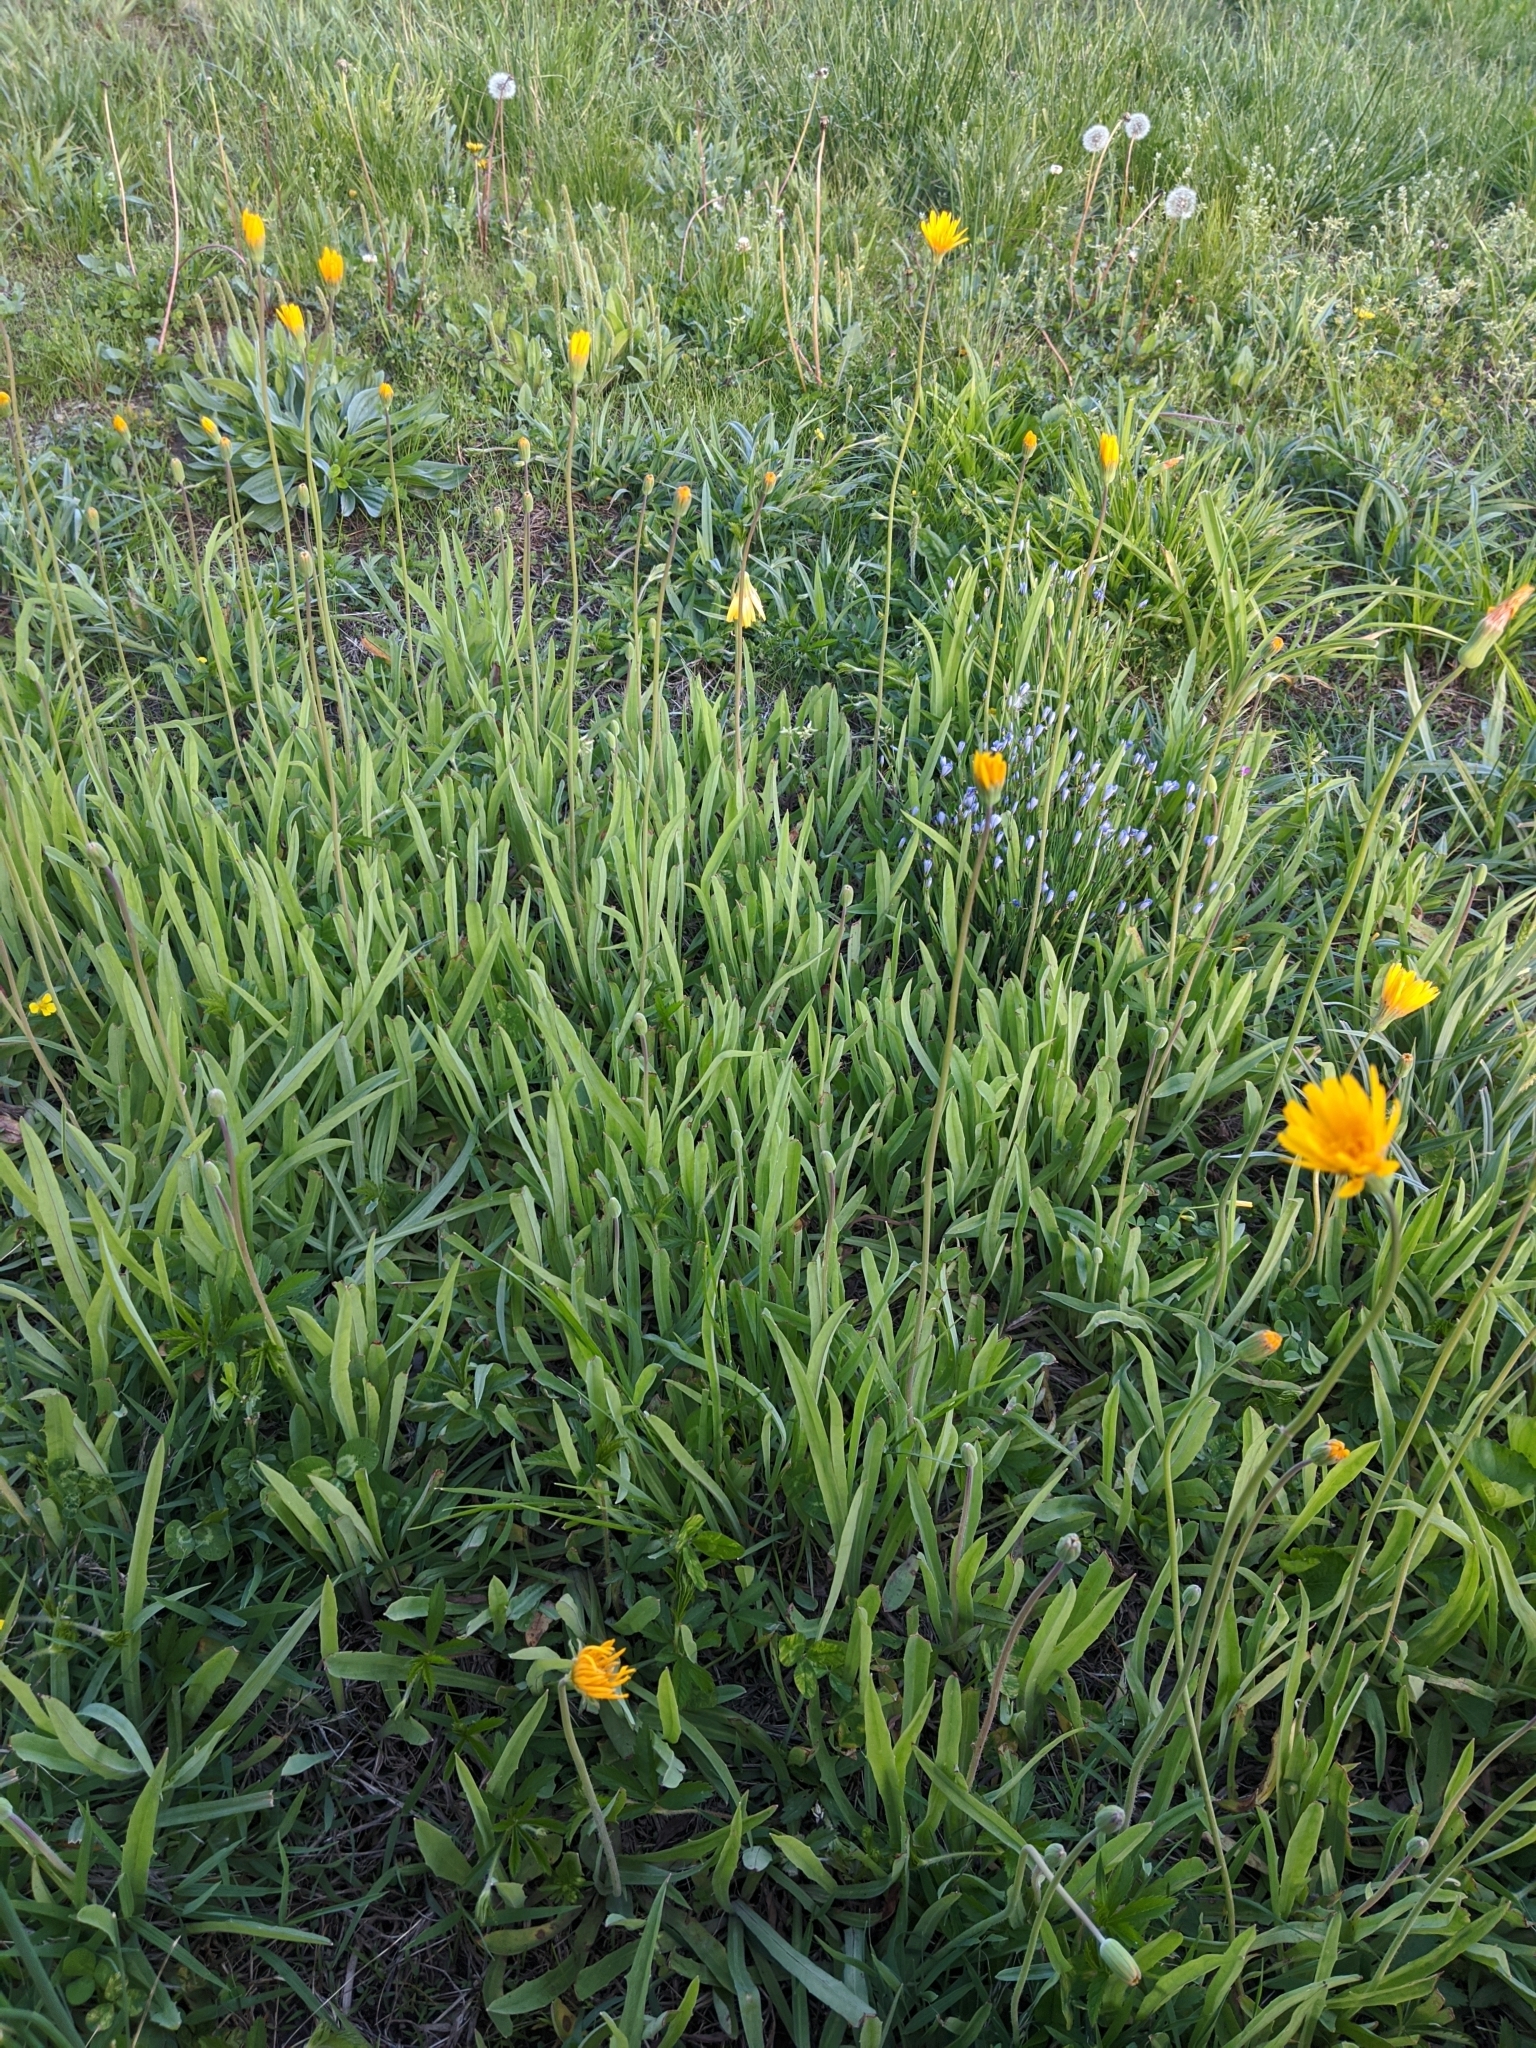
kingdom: Plantae
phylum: Tracheophyta
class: Magnoliopsida
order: Asterales
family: Asteraceae
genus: Krigia
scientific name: Krigia dandelion
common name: Colonial dwarf-dandelion
